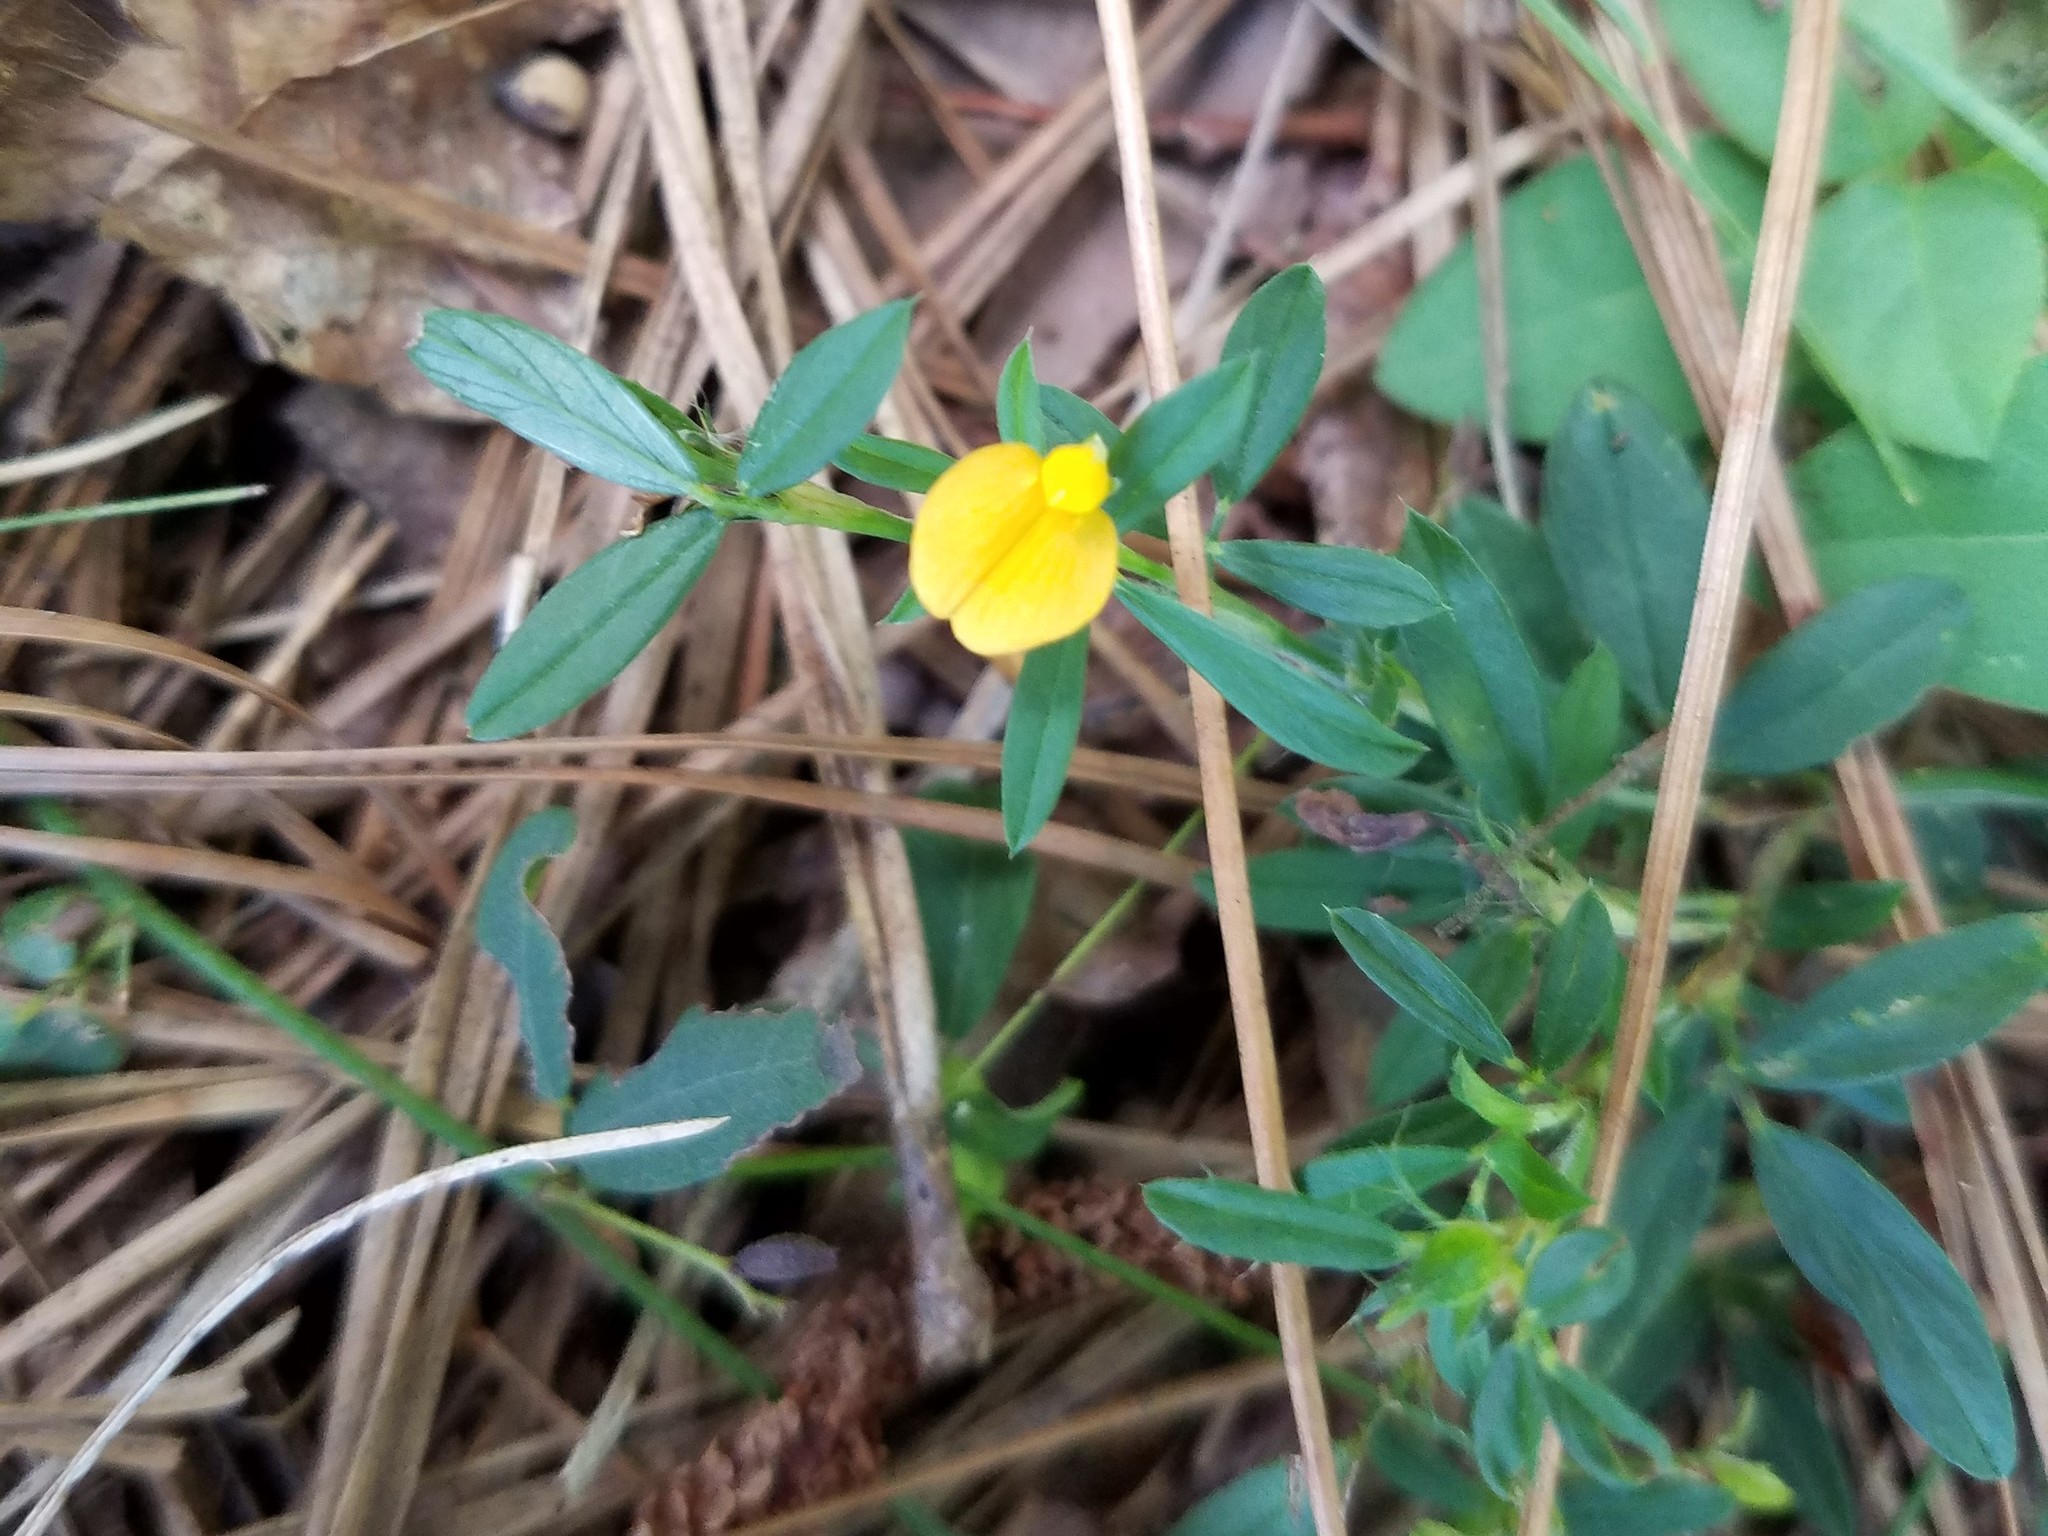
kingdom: Plantae
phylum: Tracheophyta
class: Magnoliopsida
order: Fabales
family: Fabaceae
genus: Stylosanthes
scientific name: Stylosanthes biflora
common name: Two-flower pencil-flower
